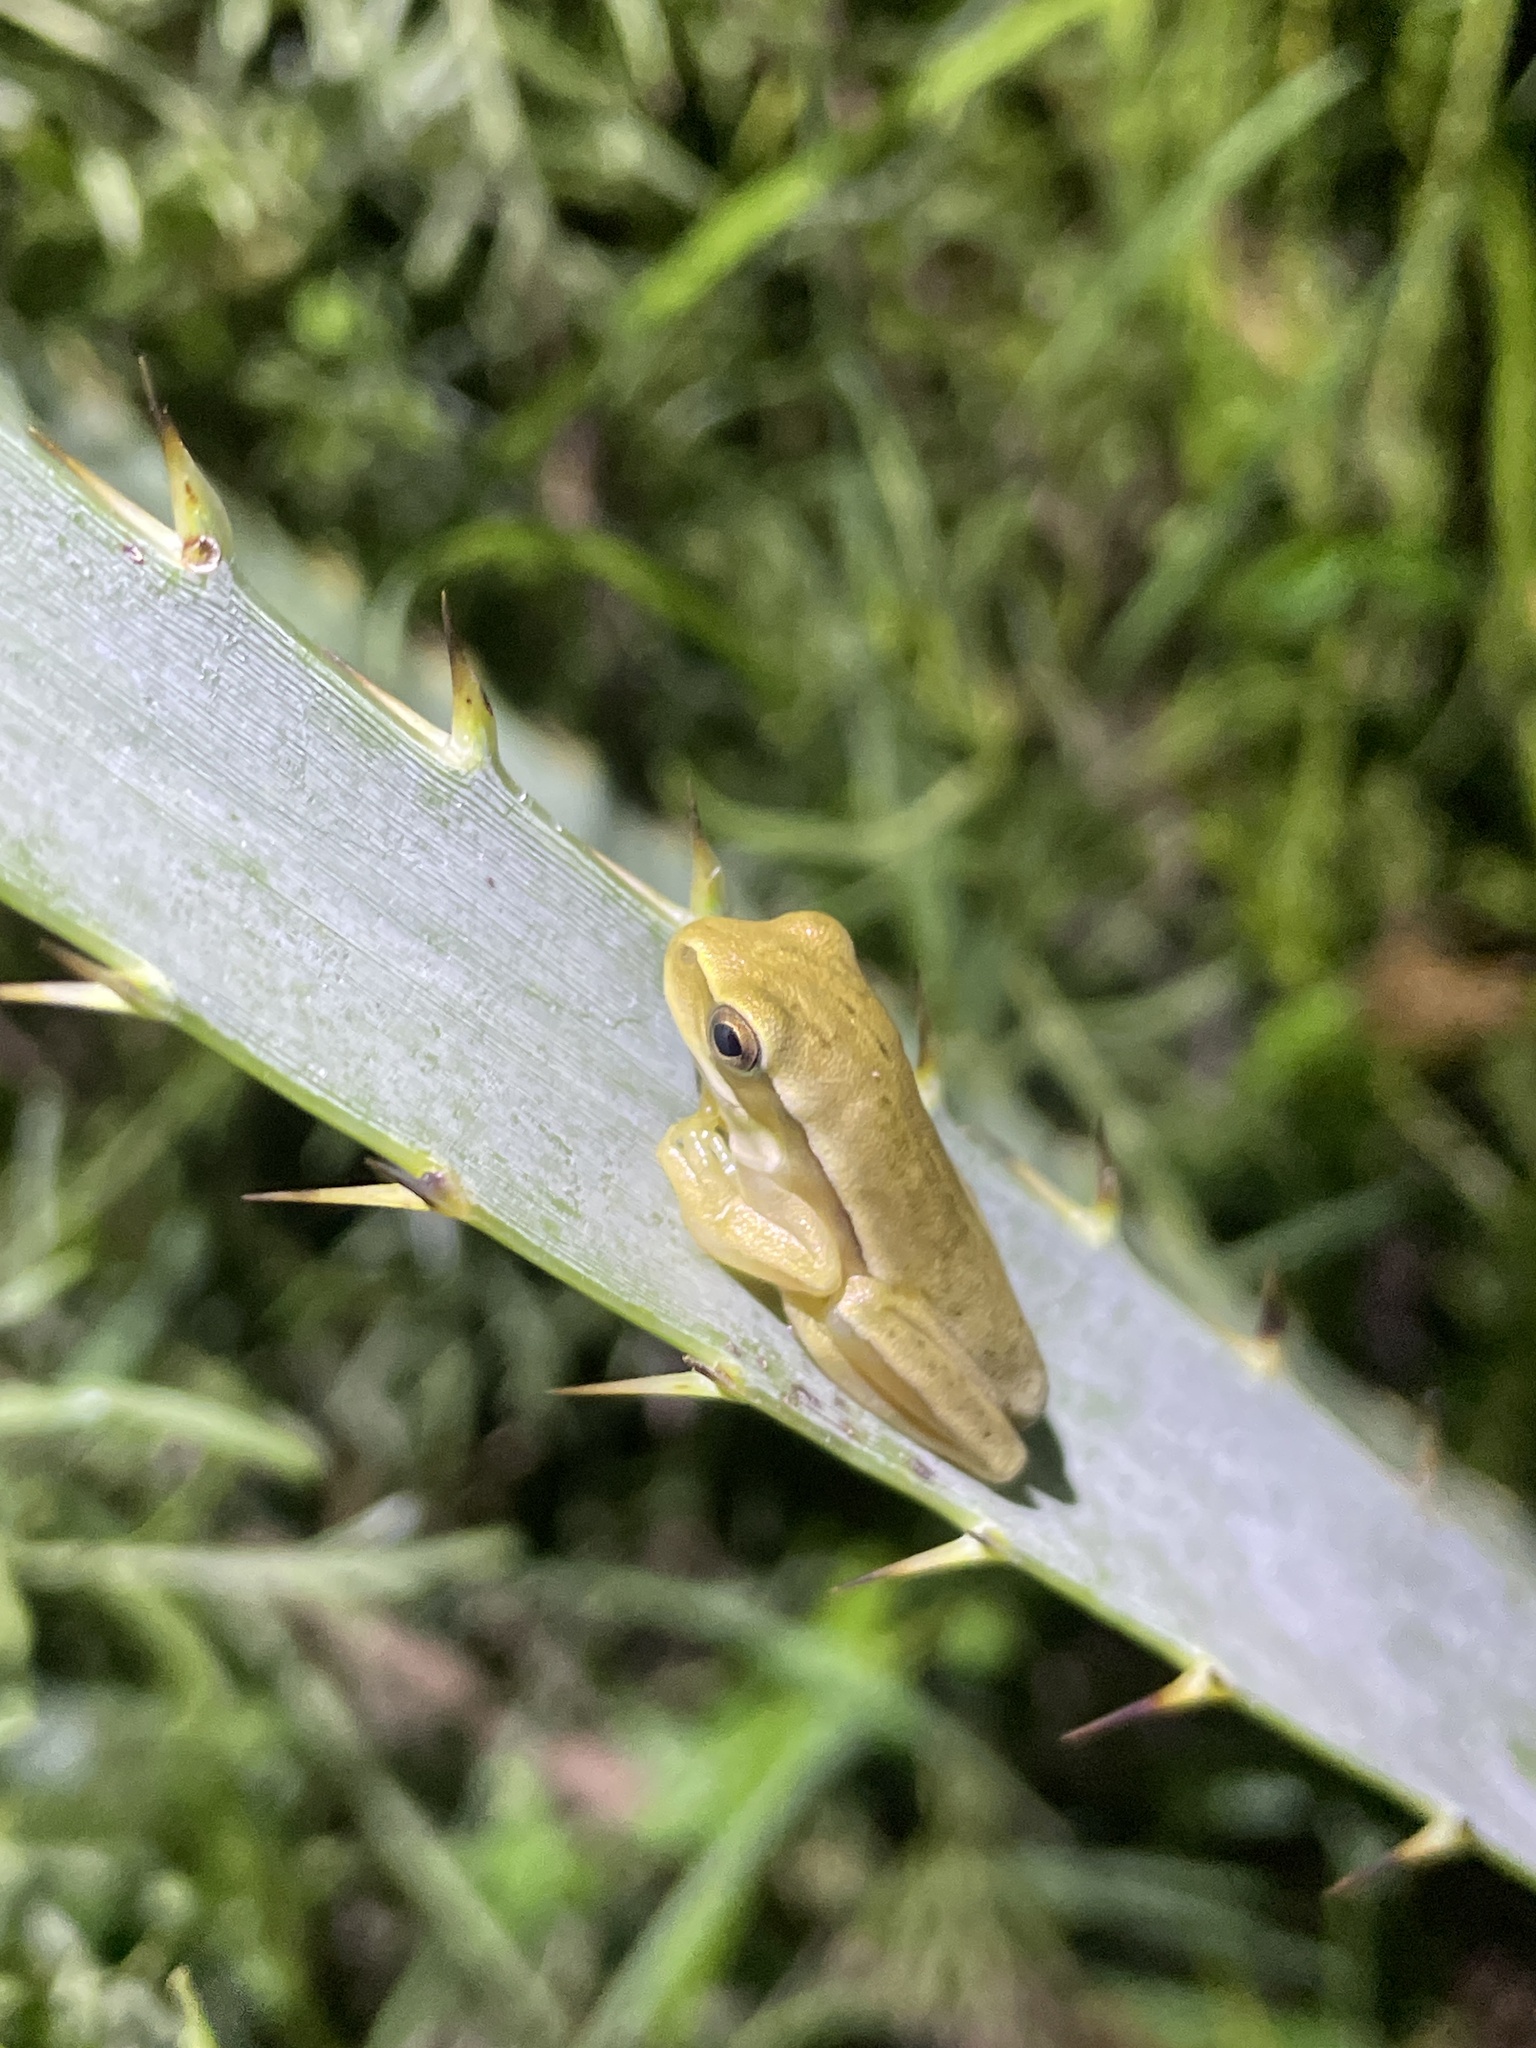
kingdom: Animalia
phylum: Chordata
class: Amphibia
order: Anura
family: Hylidae
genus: Boana
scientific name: Boana pulchella
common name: Montevideo treefrog
